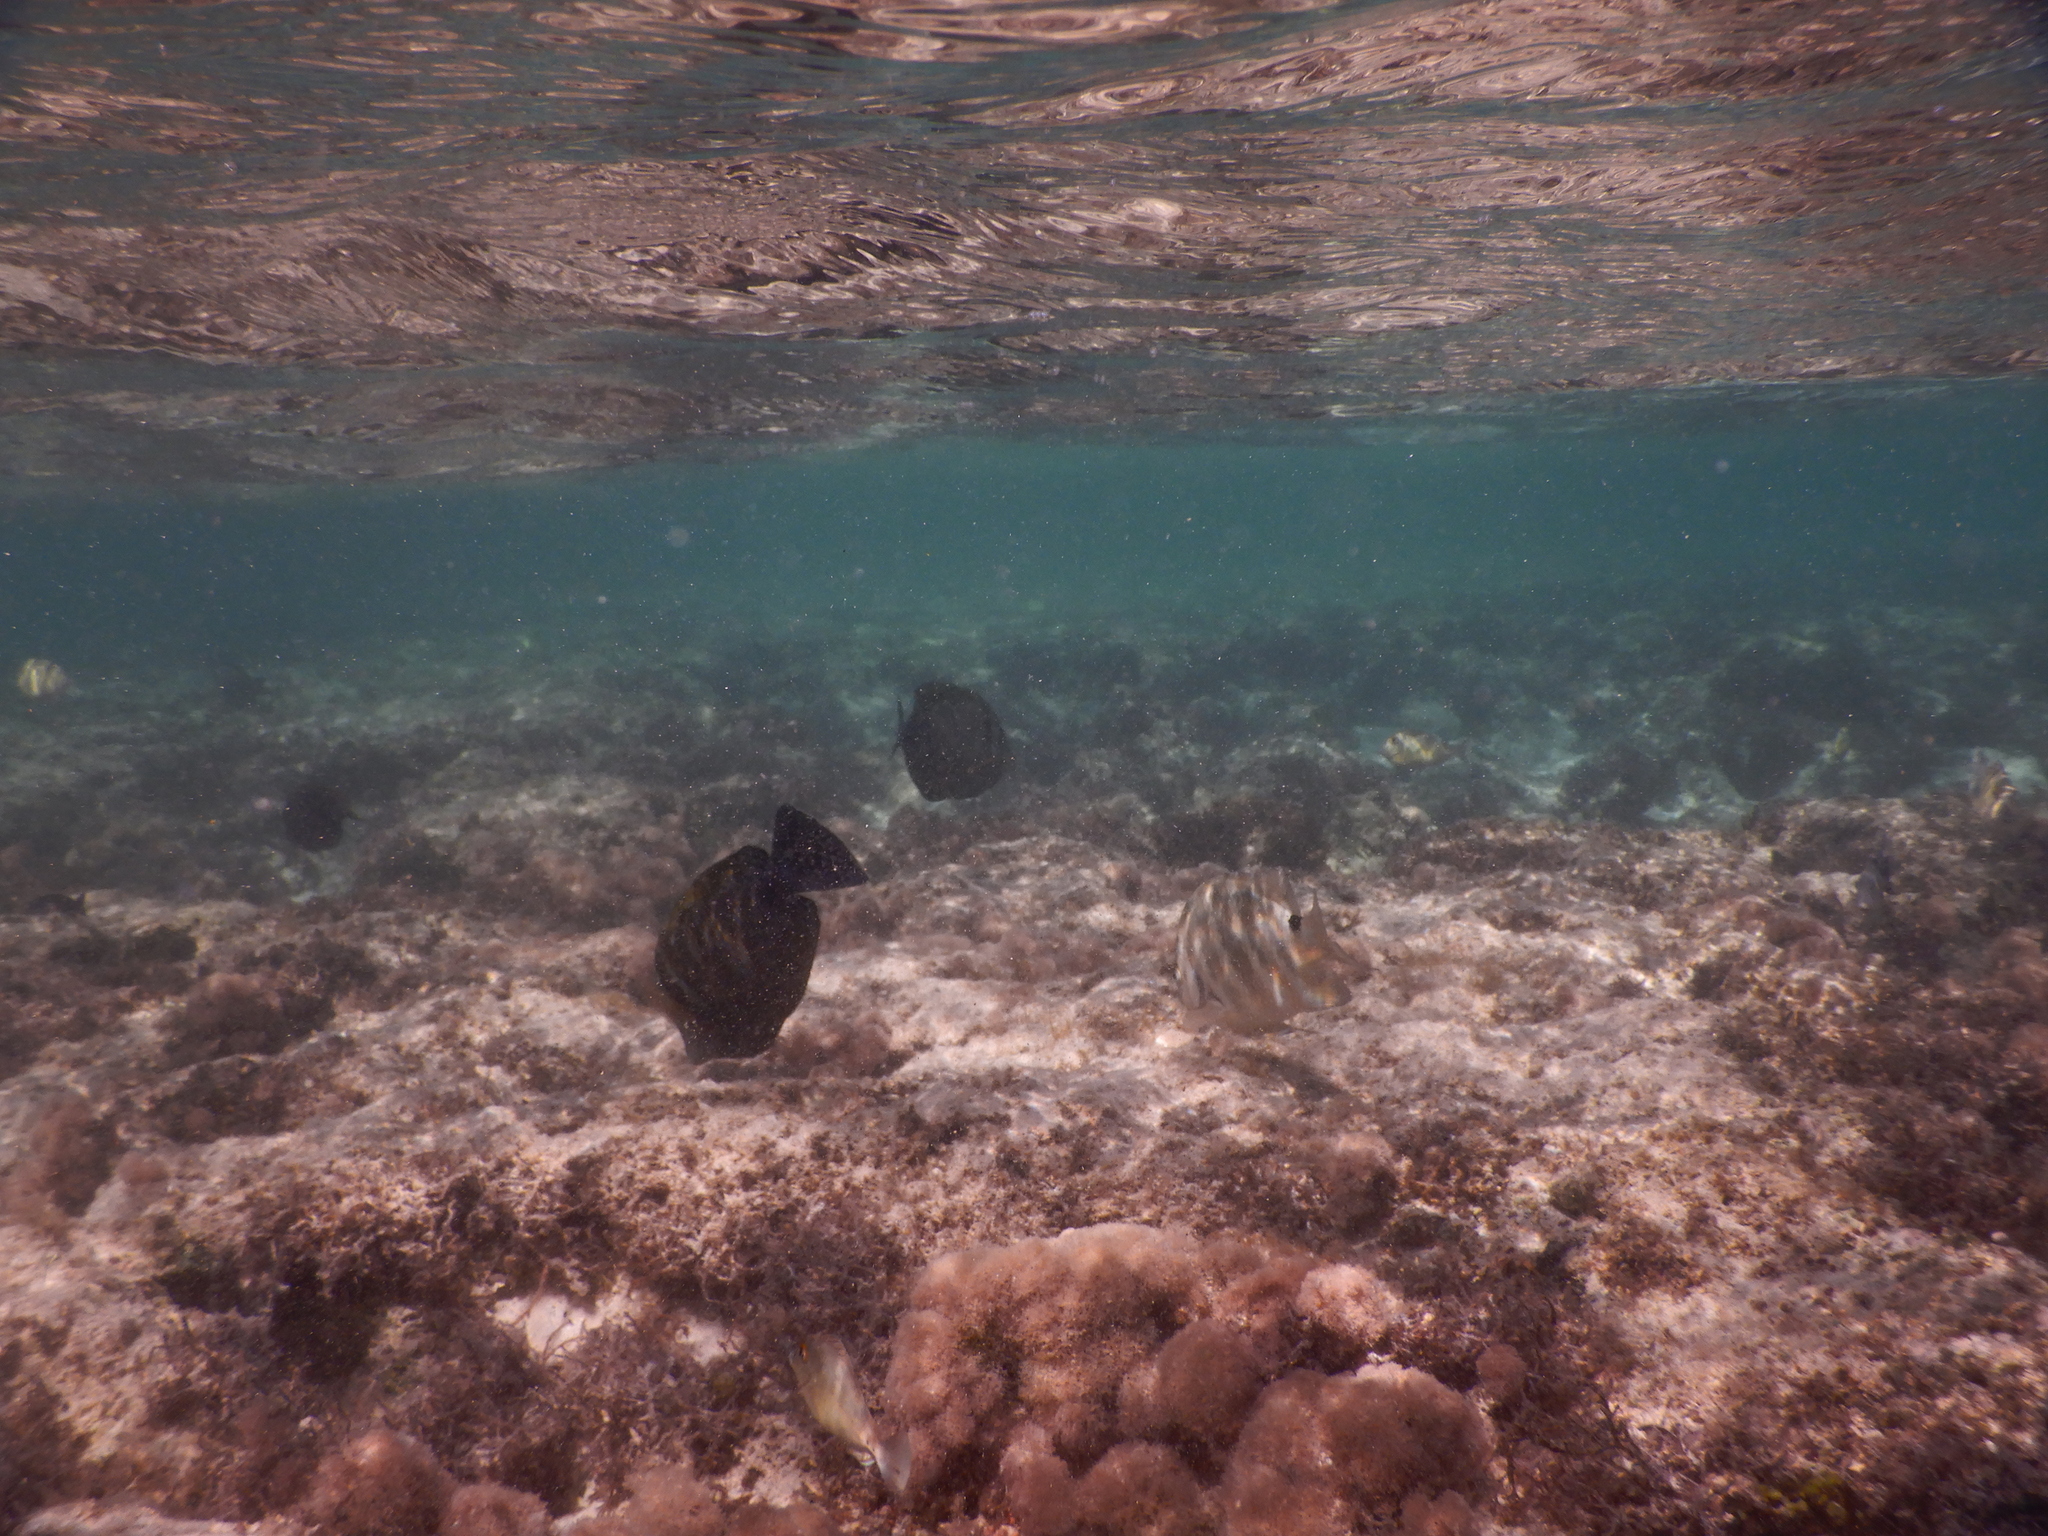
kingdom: Animalia
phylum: Chordata
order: Perciformes
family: Pomacentridae
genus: Abudefduf
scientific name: Abudefduf sordidus
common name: Blackspot sergeant
